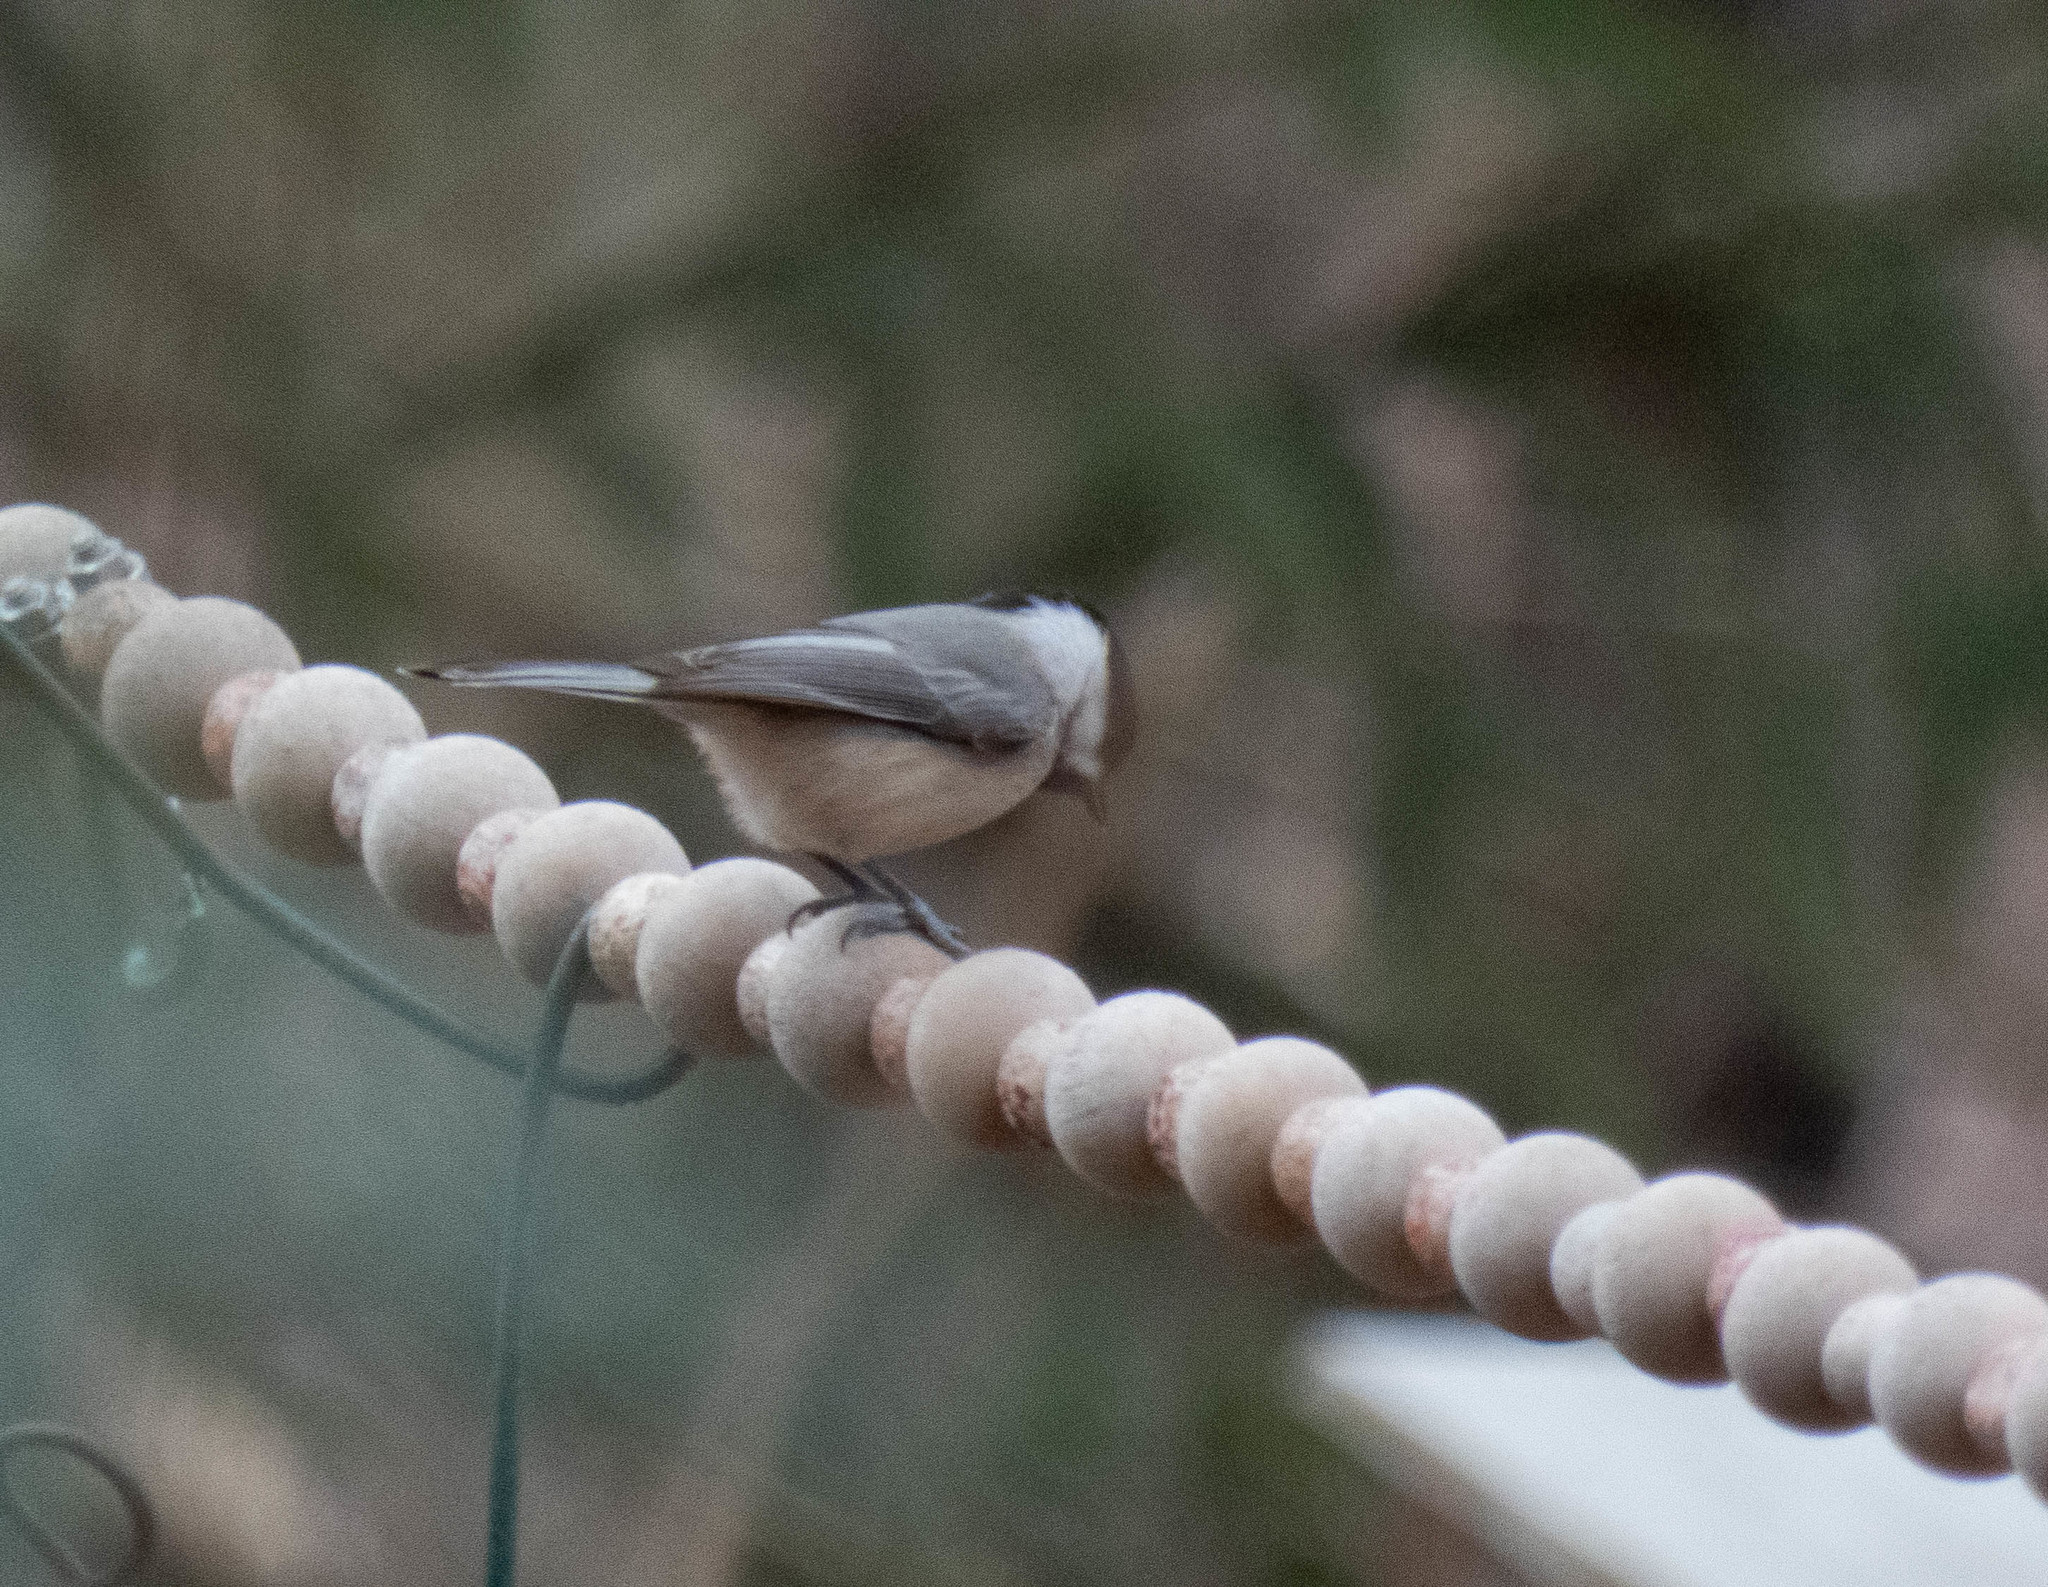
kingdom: Animalia
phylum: Chordata
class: Aves
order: Passeriformes
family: Paridae
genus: Poecile
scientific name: Poecile carolinensis
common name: Carolina chickadee
